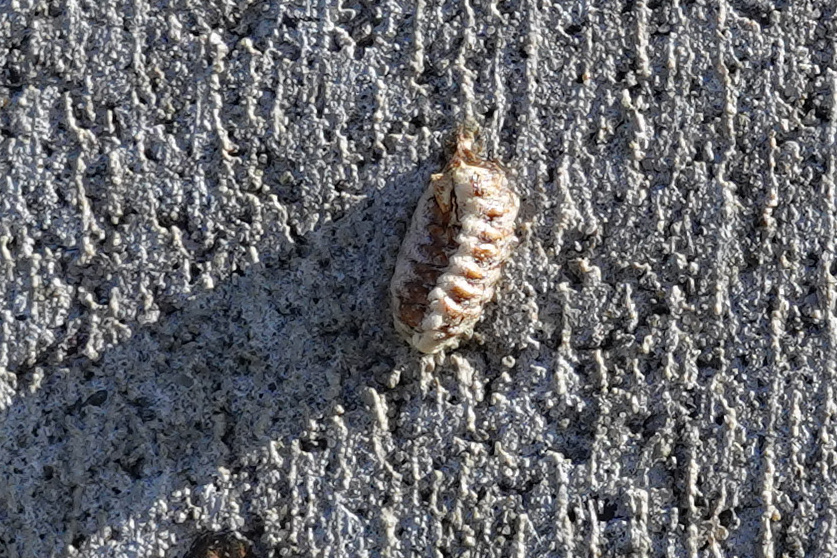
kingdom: Animalia
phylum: Arthropoda
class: Insecta
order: Mantodea
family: Mantidae
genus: Orthodera
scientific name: Orthodera novaezealandiae
